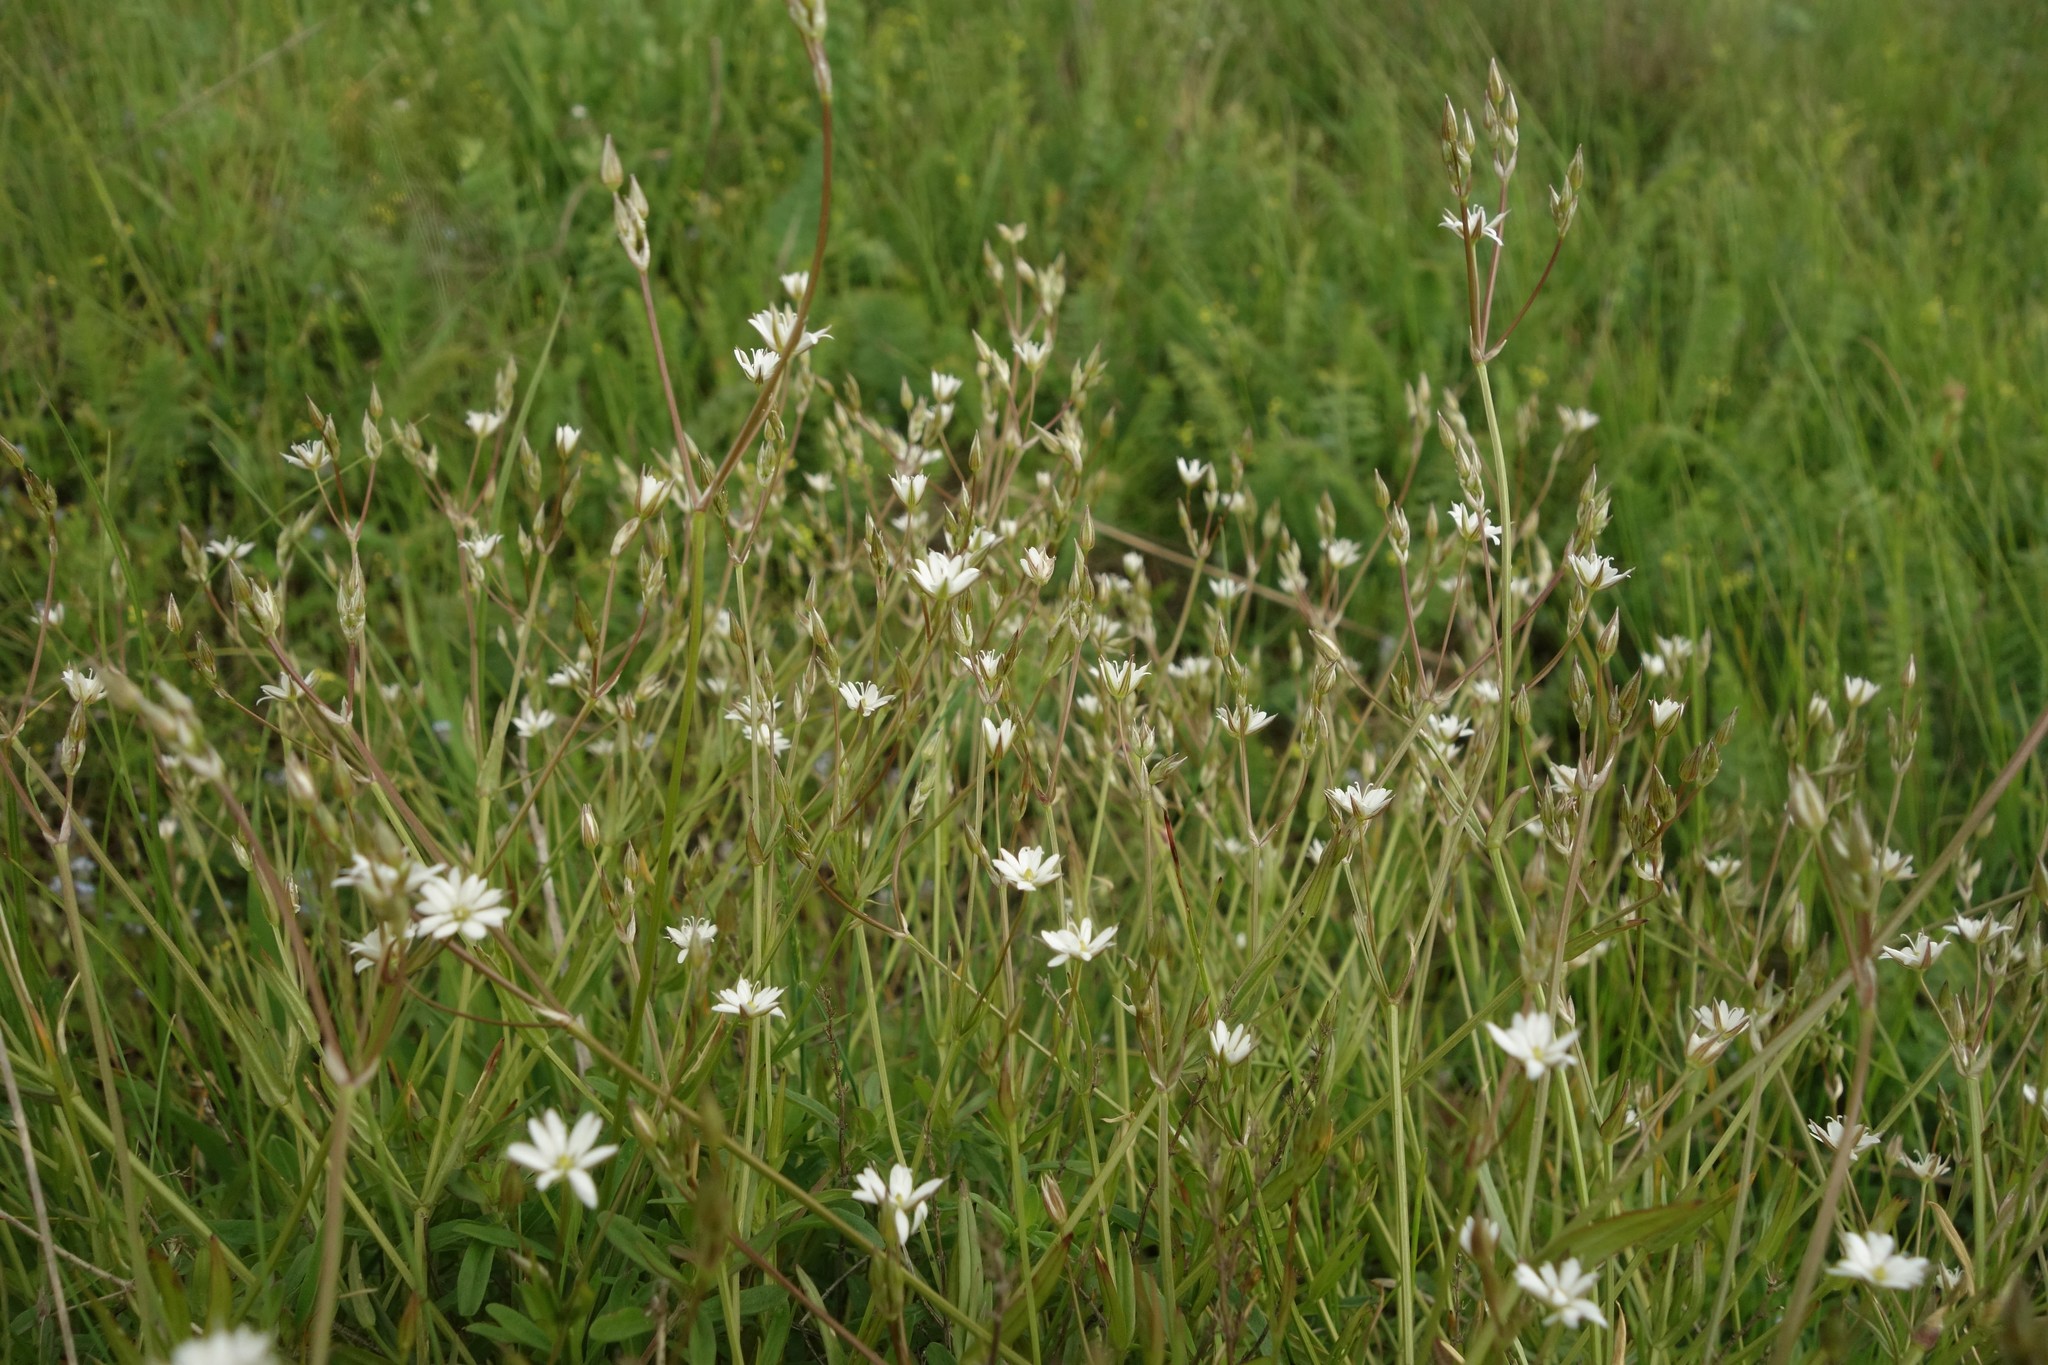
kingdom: Plantae
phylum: Tracheophyta
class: Magnoliopsida
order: Caryophyllales
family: Caryophyllaceae
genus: Stellaria
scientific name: Stellaria graminea
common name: Grass-like starwort
